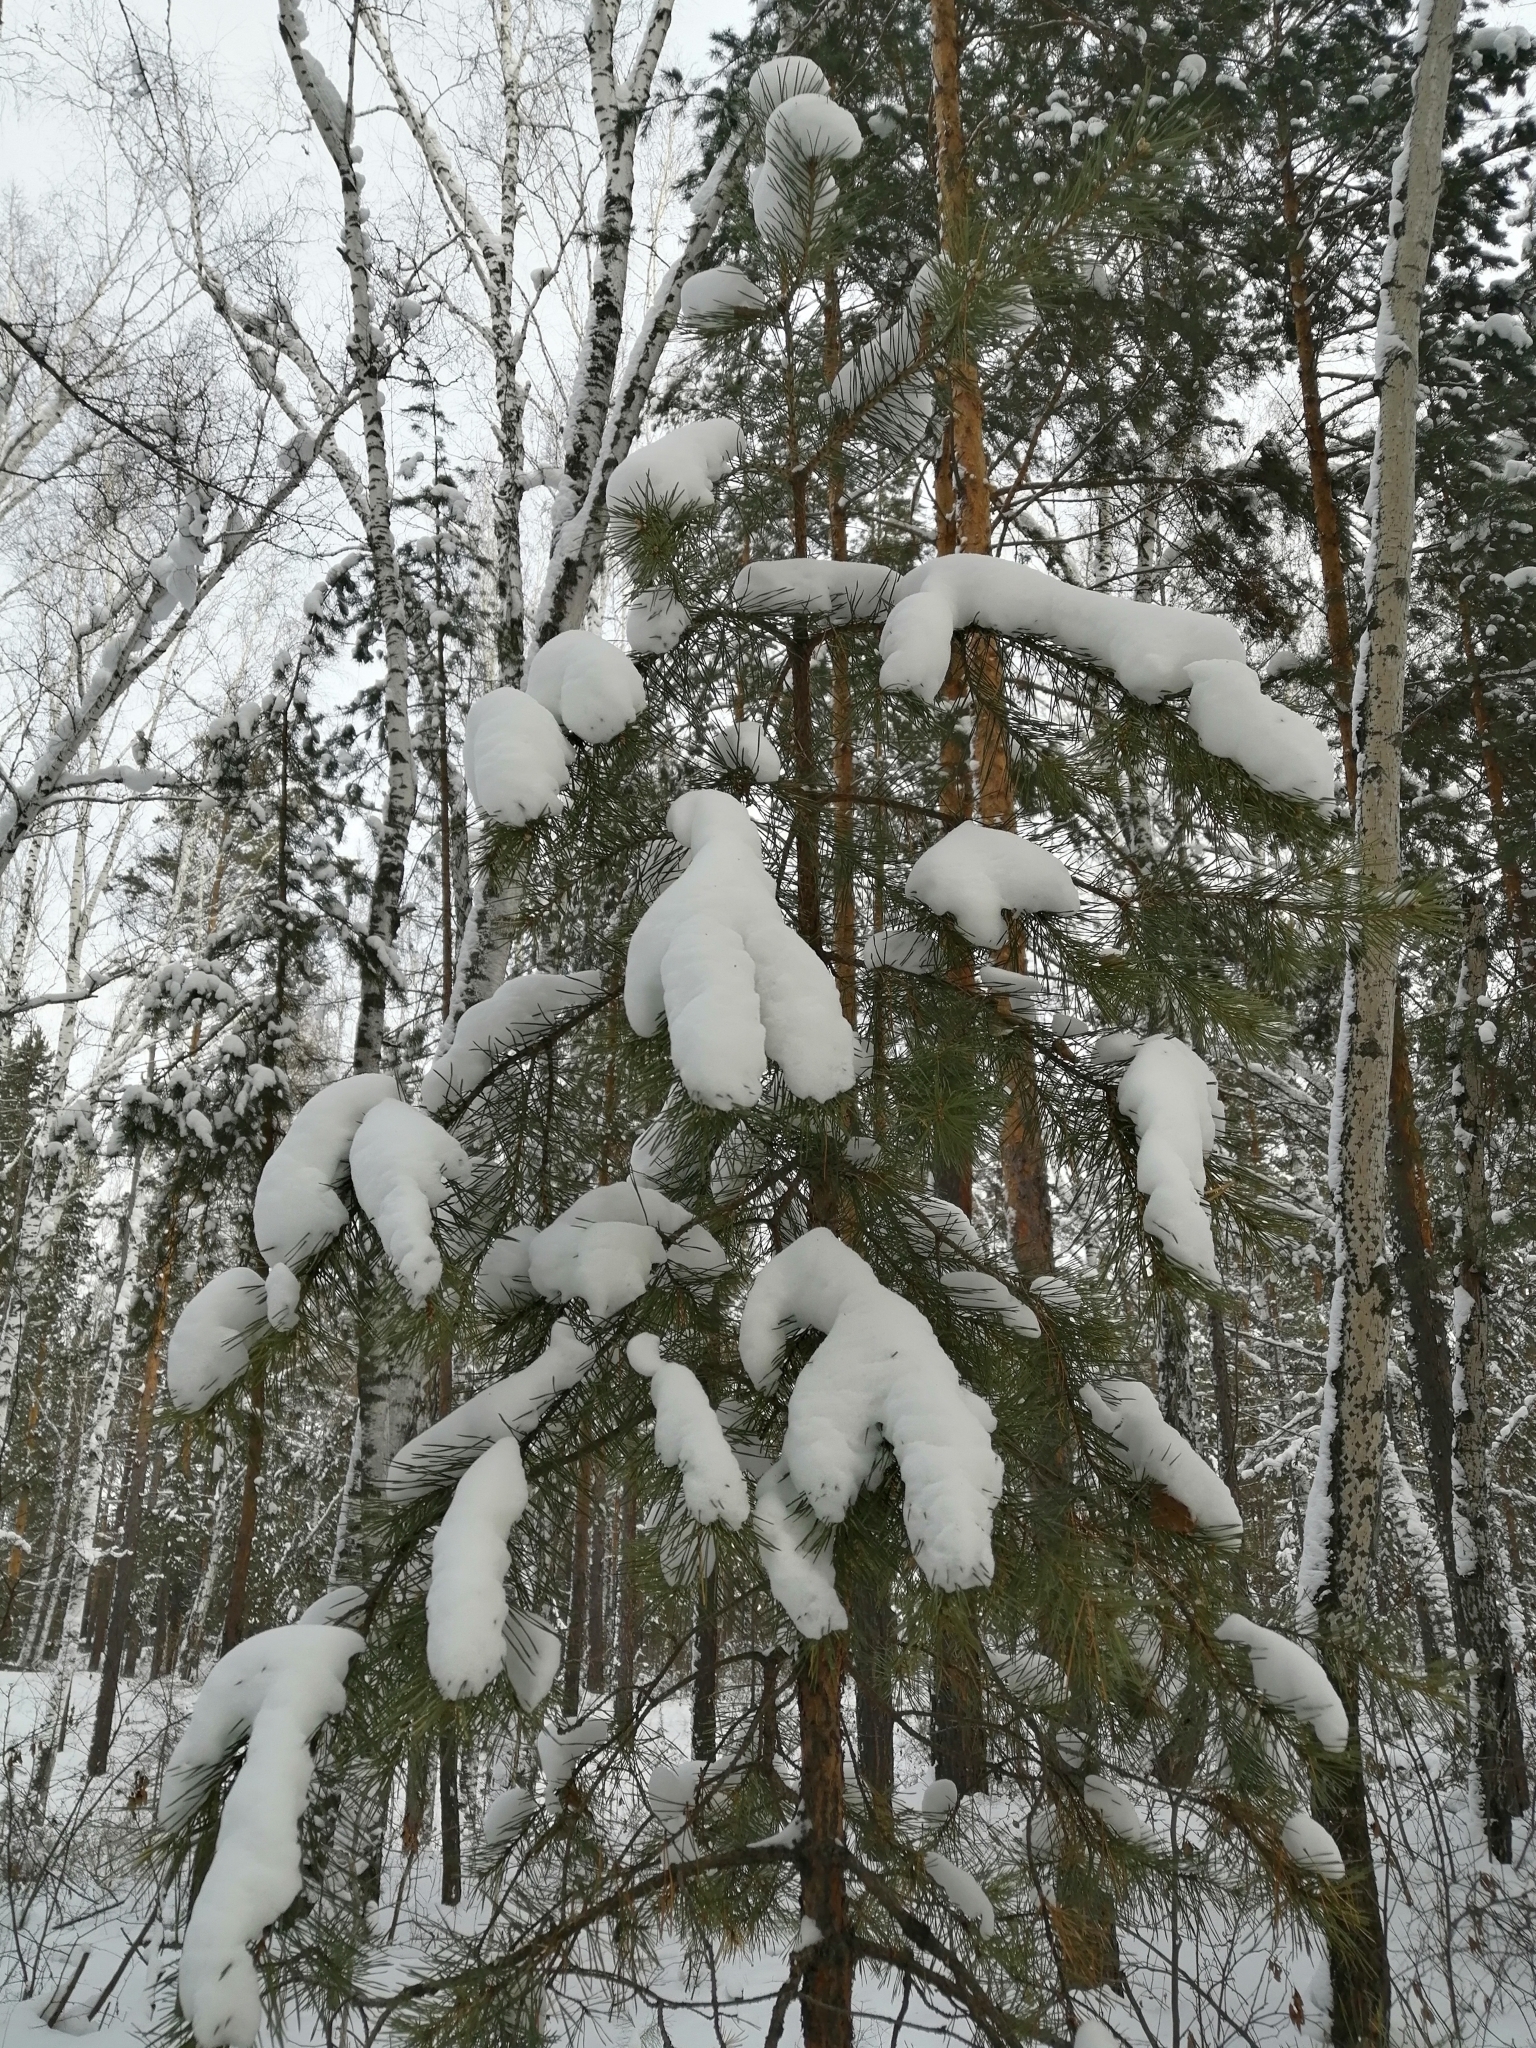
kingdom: Plantae
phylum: Tracheophyta
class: Pinopsida
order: Pinales
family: Pinaceae
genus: Pinus
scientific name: Pinus sylvestris
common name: Scots pine
